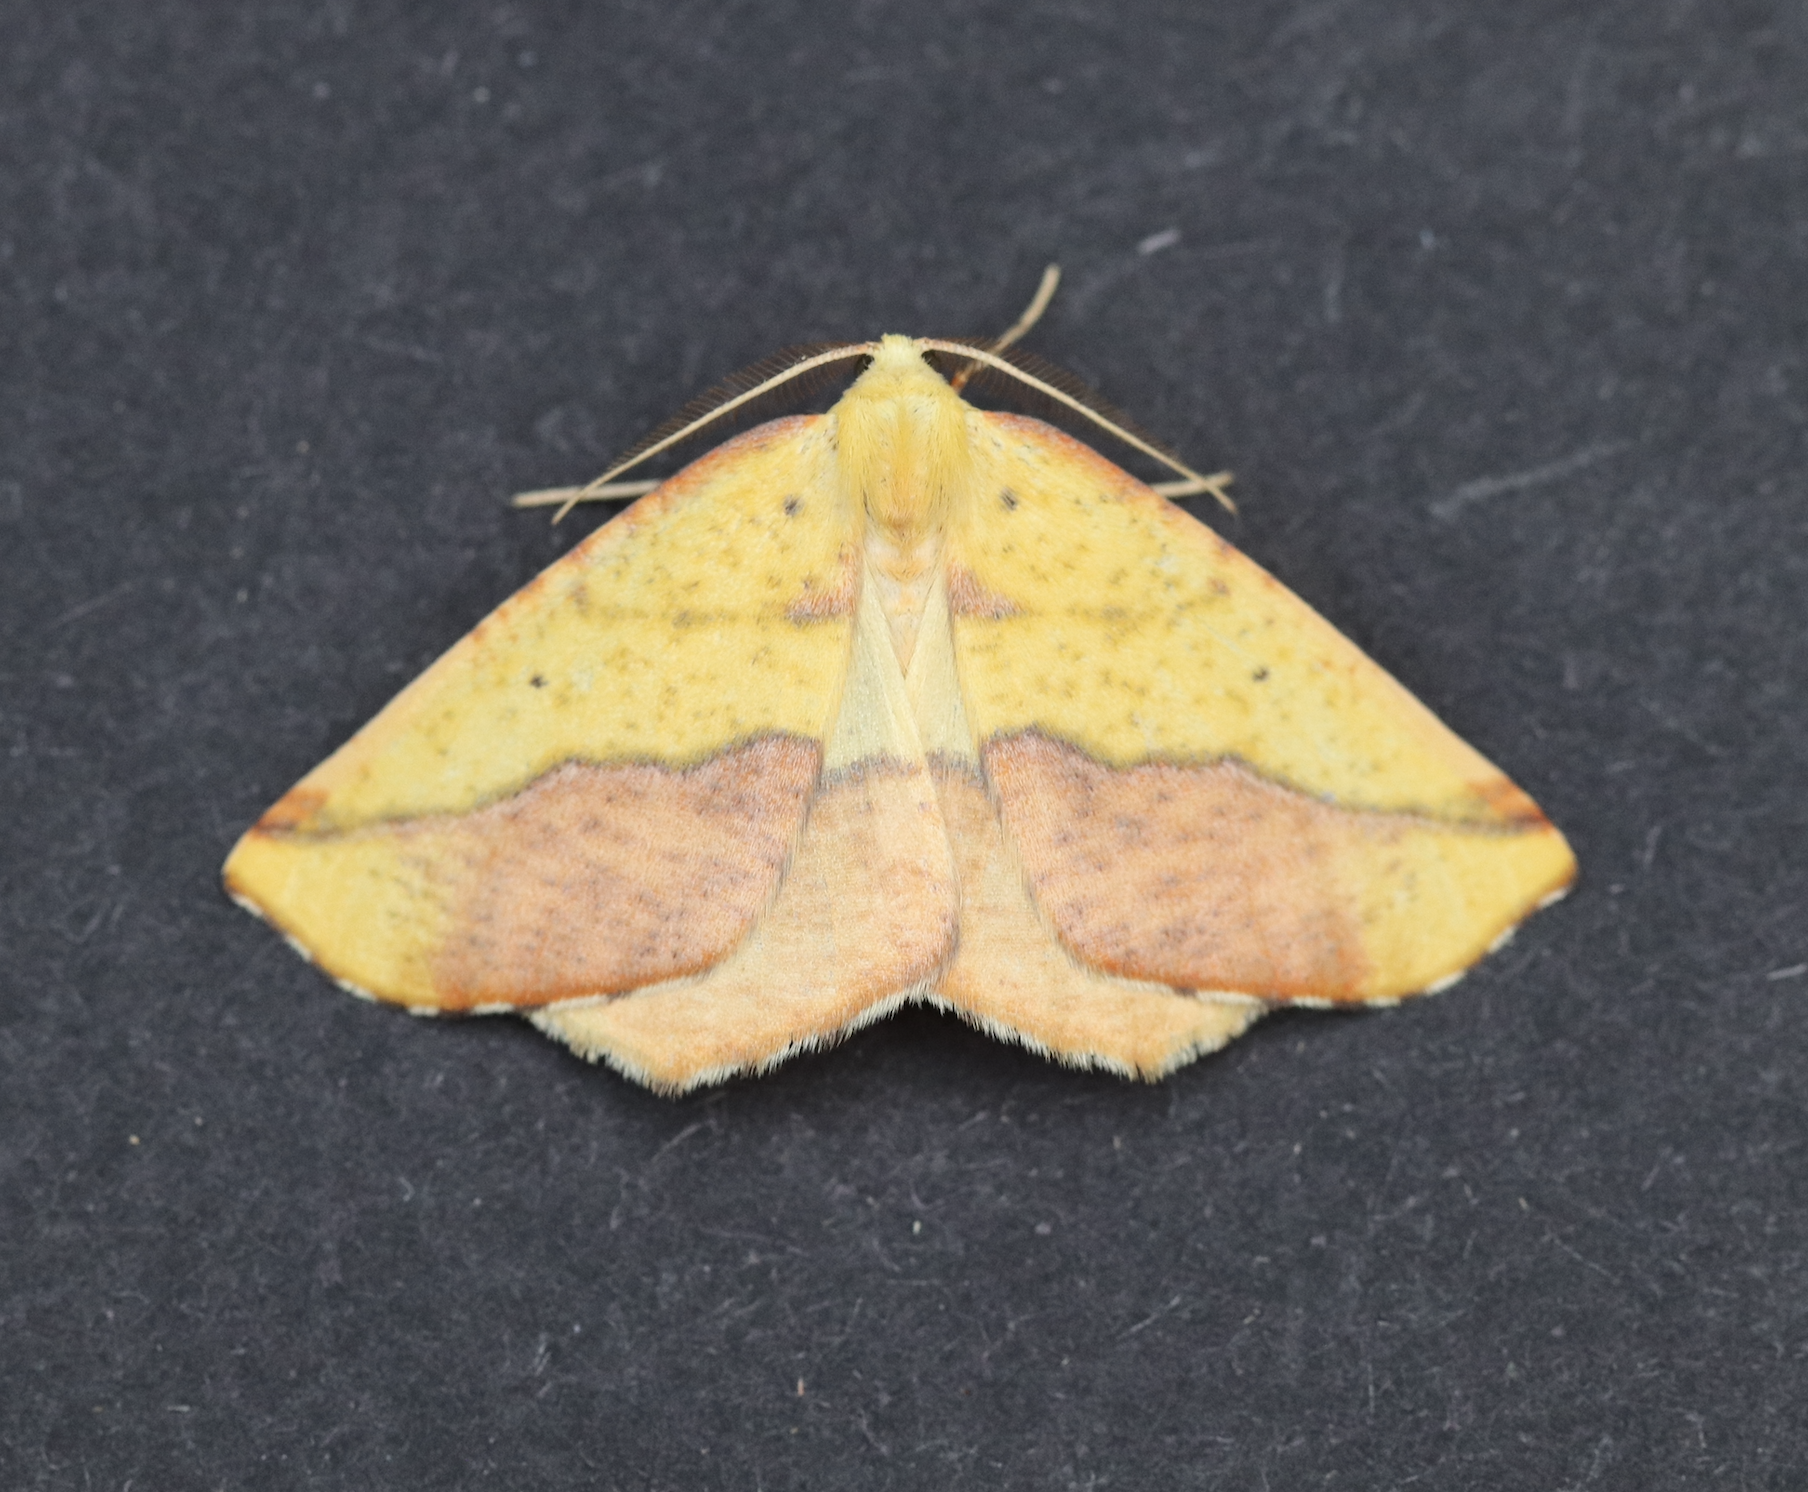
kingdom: Animalia
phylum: Arthropoda
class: Insecta
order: Lepidoptera
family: Geometridae
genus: Sicya
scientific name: Sicya macularia
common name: Sharp-lined yellow
